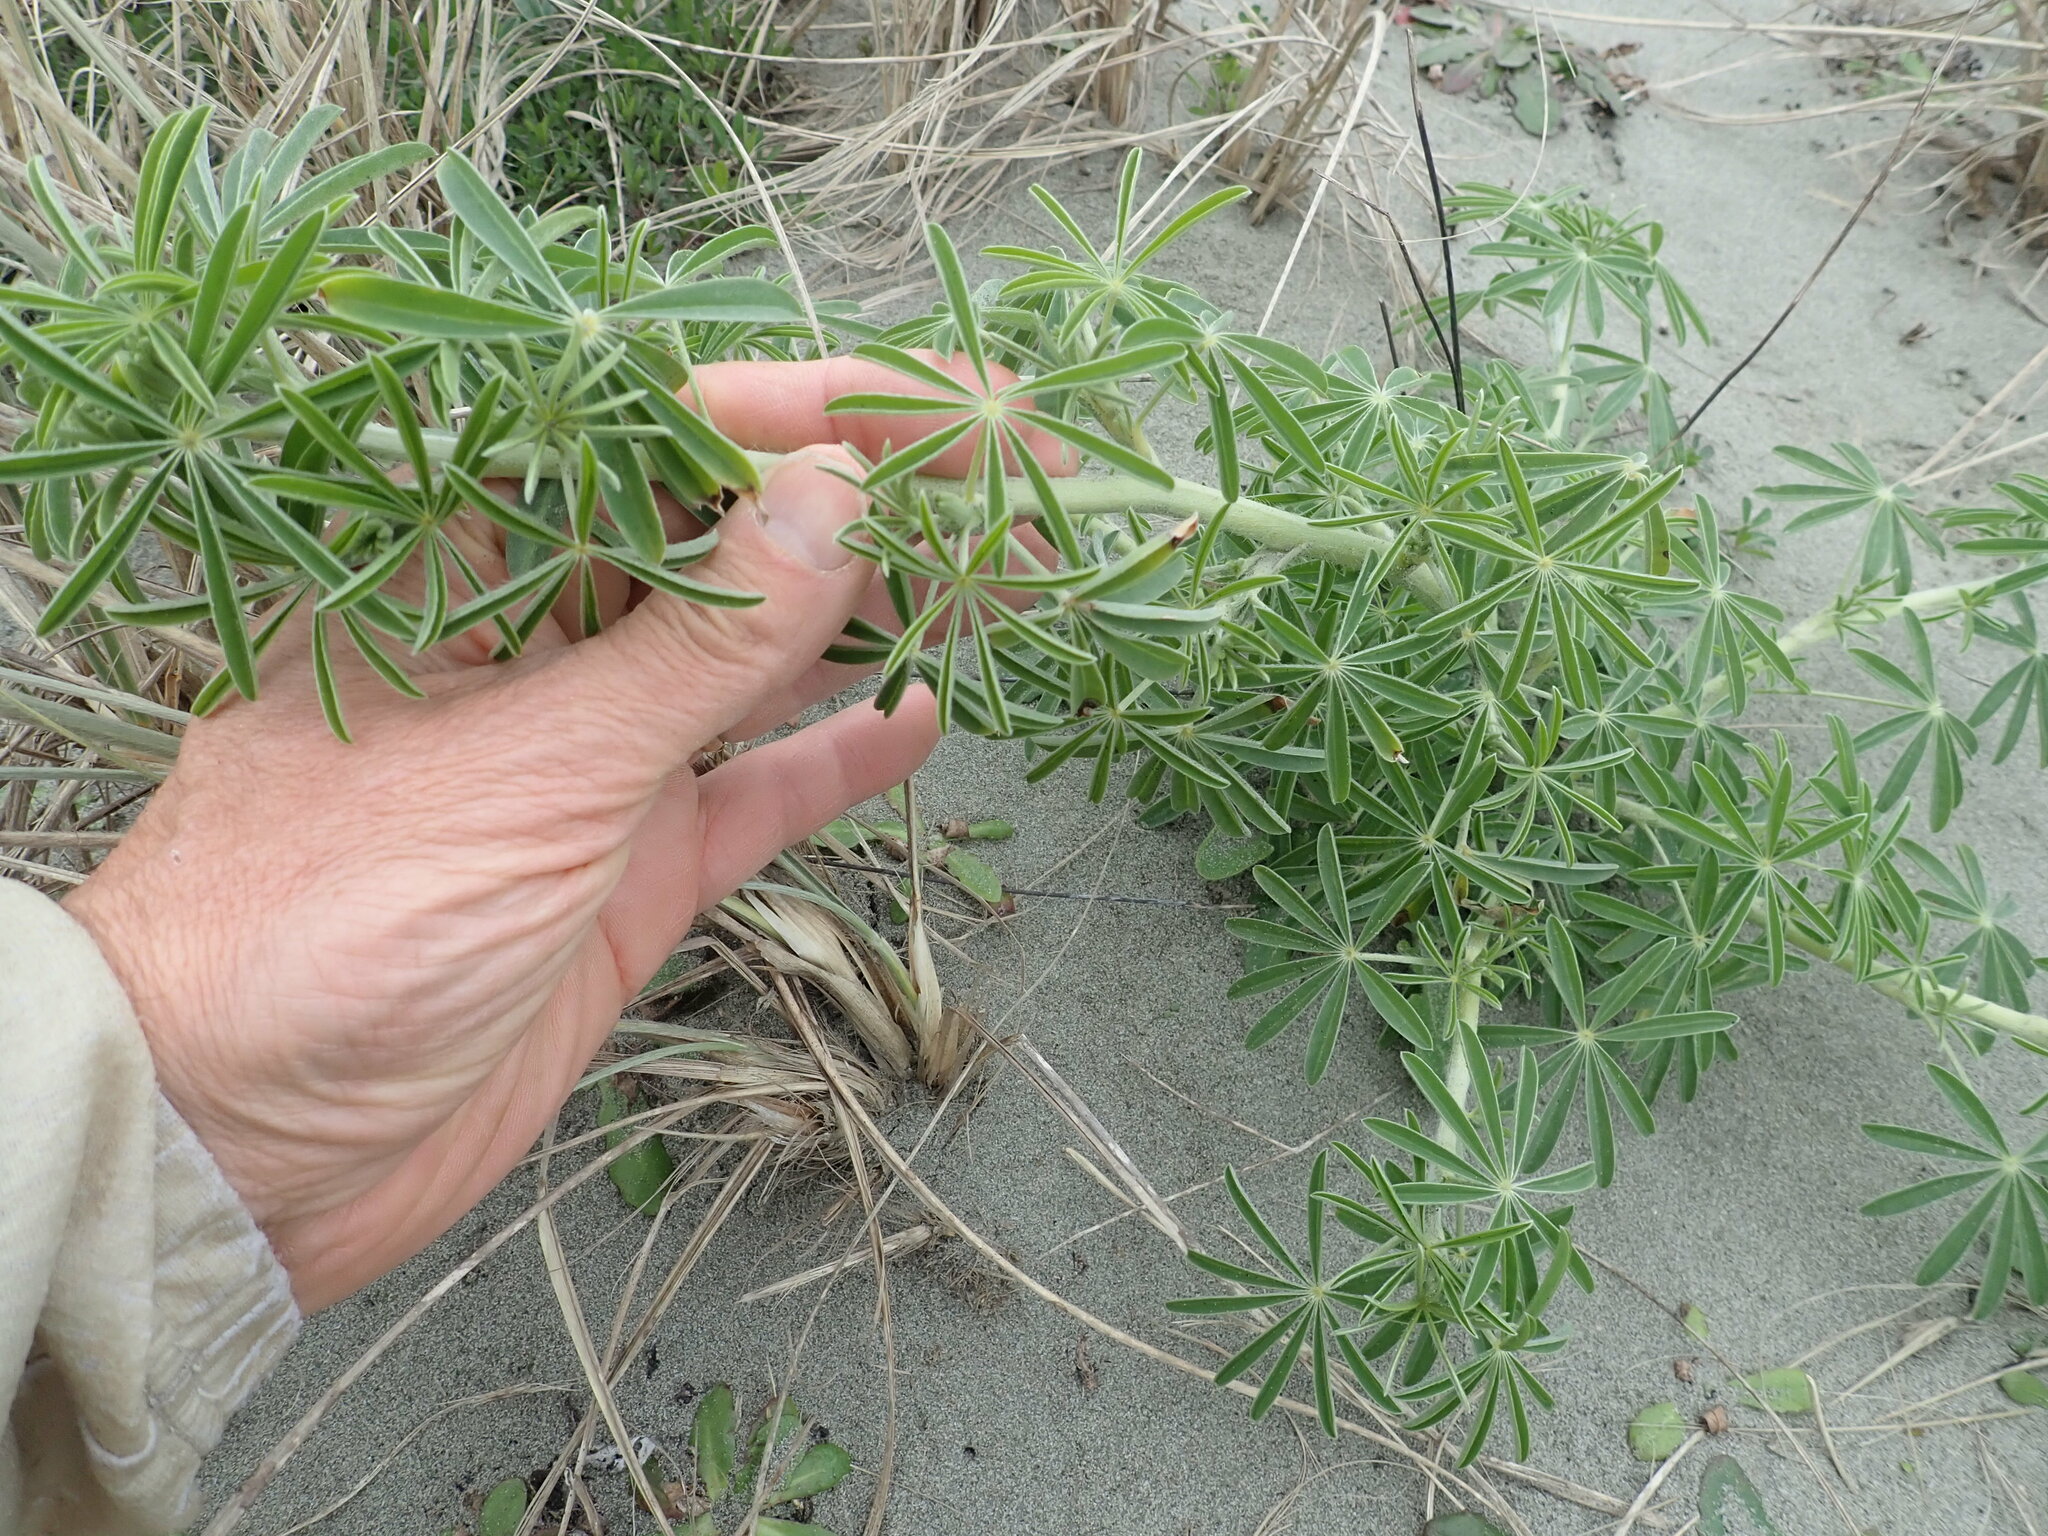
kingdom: Plantae
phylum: Tracheophyta
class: Magnoliopsida
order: Fabales
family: Fabaceae
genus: Lupinus
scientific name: Lupinus arboreus
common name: Yellow bush lupine
